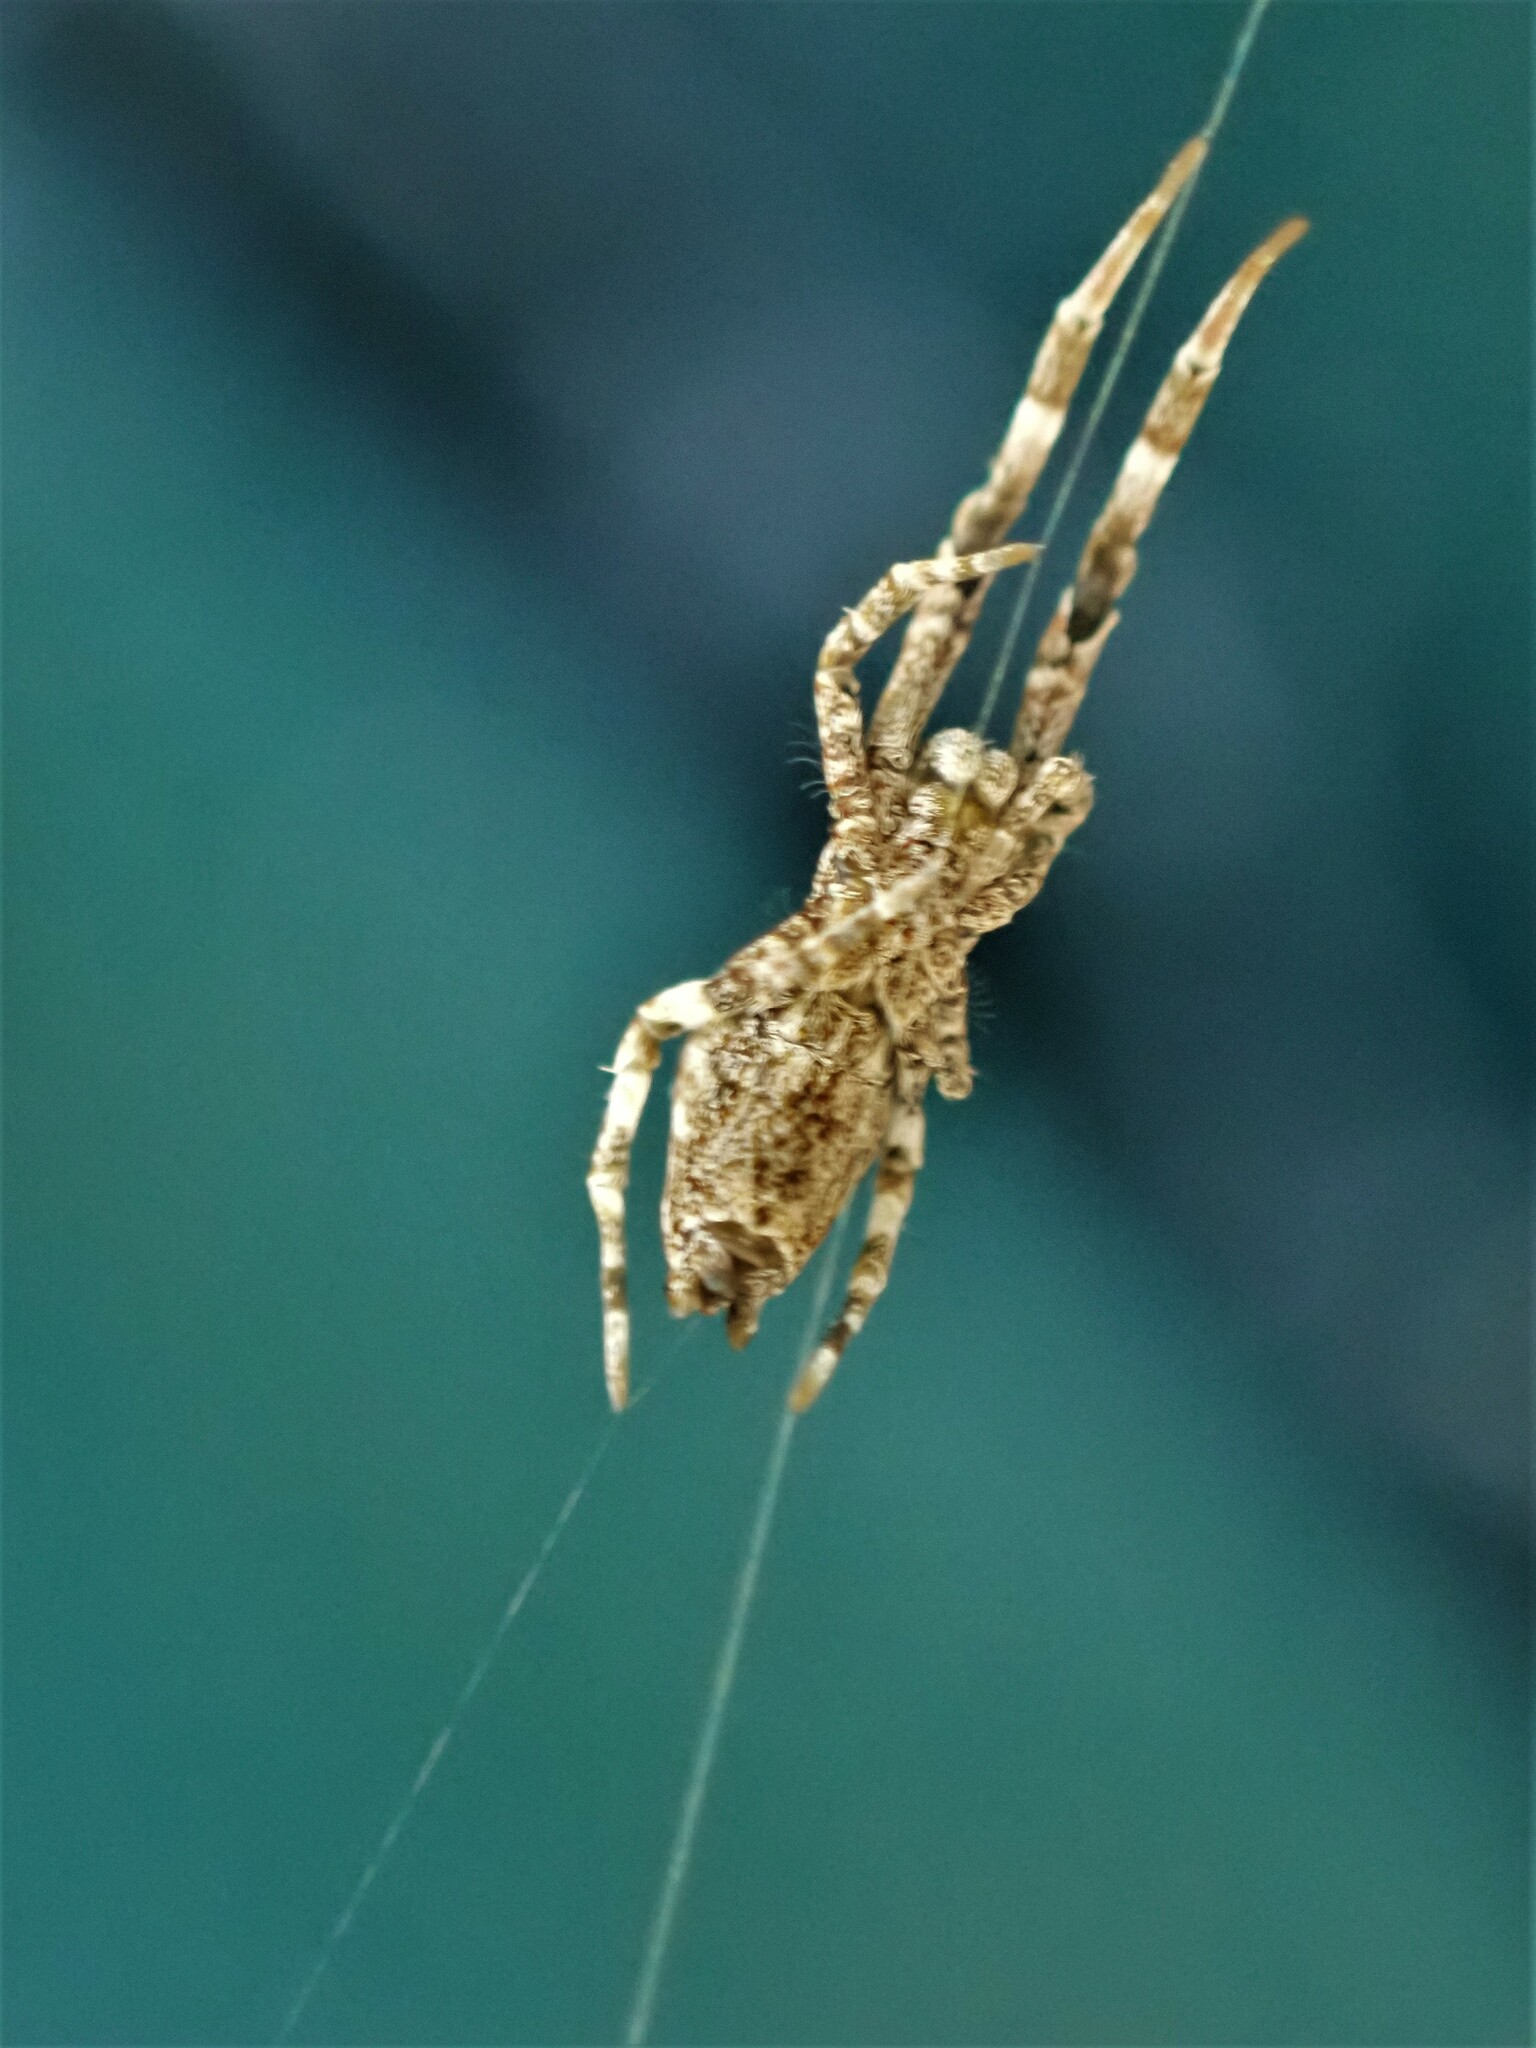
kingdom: Animalia
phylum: Arthropoda
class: Arachnida
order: Araneae
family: Uloboridae
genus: Philoponella
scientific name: Philoponella congregabilis
